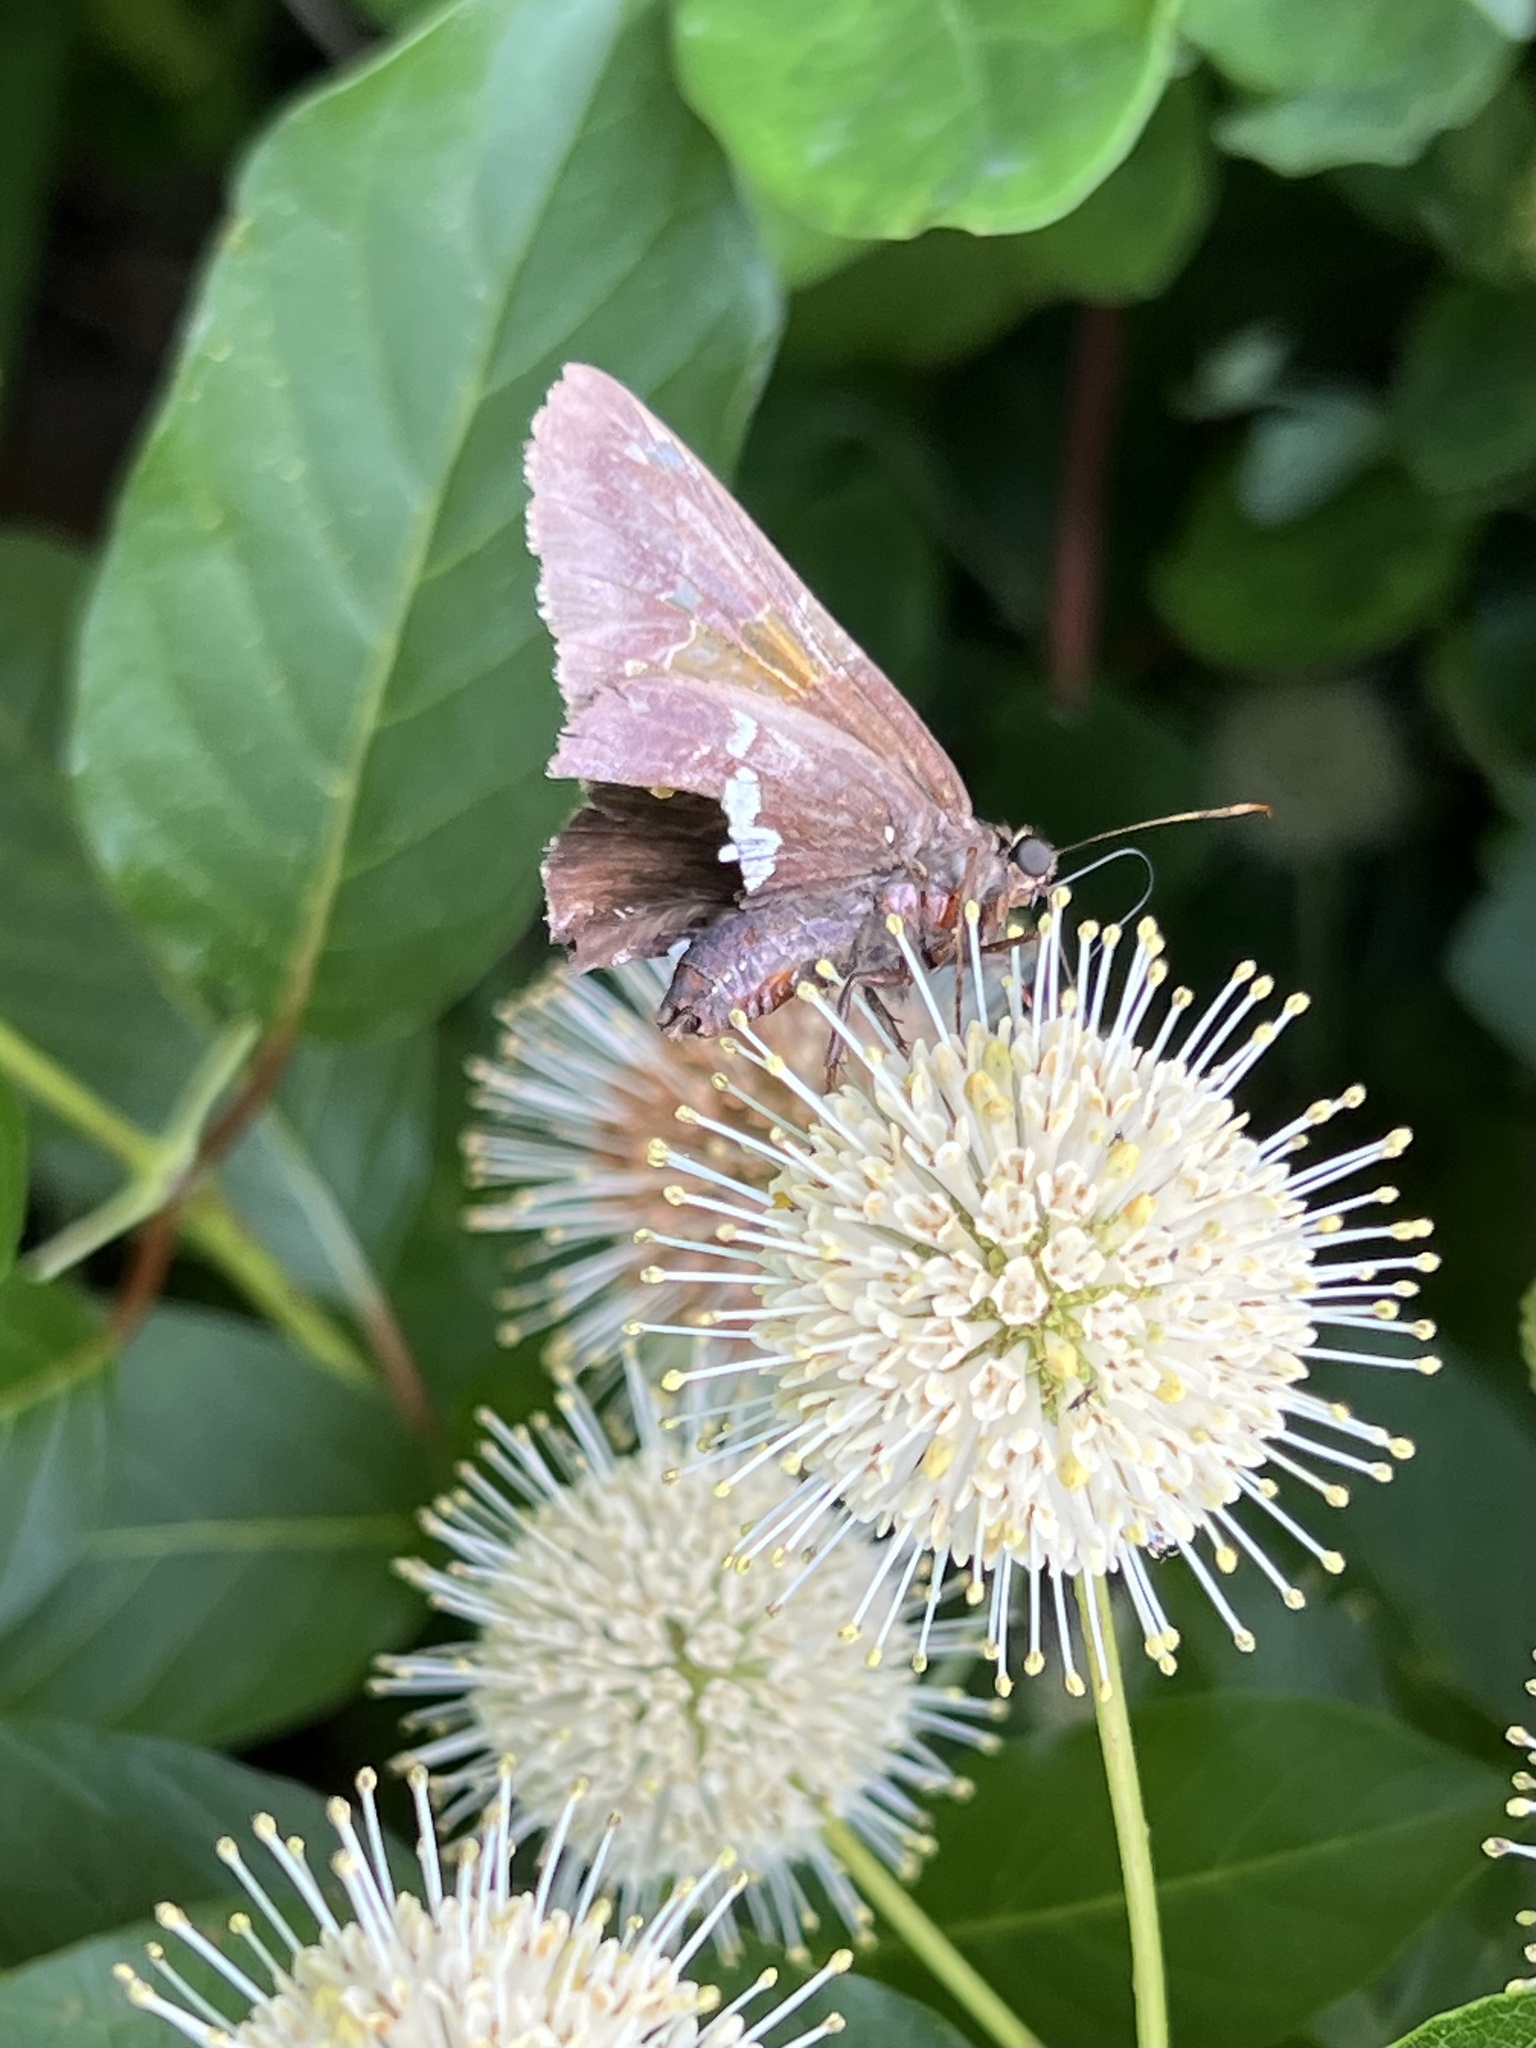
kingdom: Animalia
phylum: Arthropoda
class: Insecta
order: Lepidoptera
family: Hesperiidae
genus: Epargyreus
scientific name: Epargyreus clarus
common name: Silver-spotted skipper
